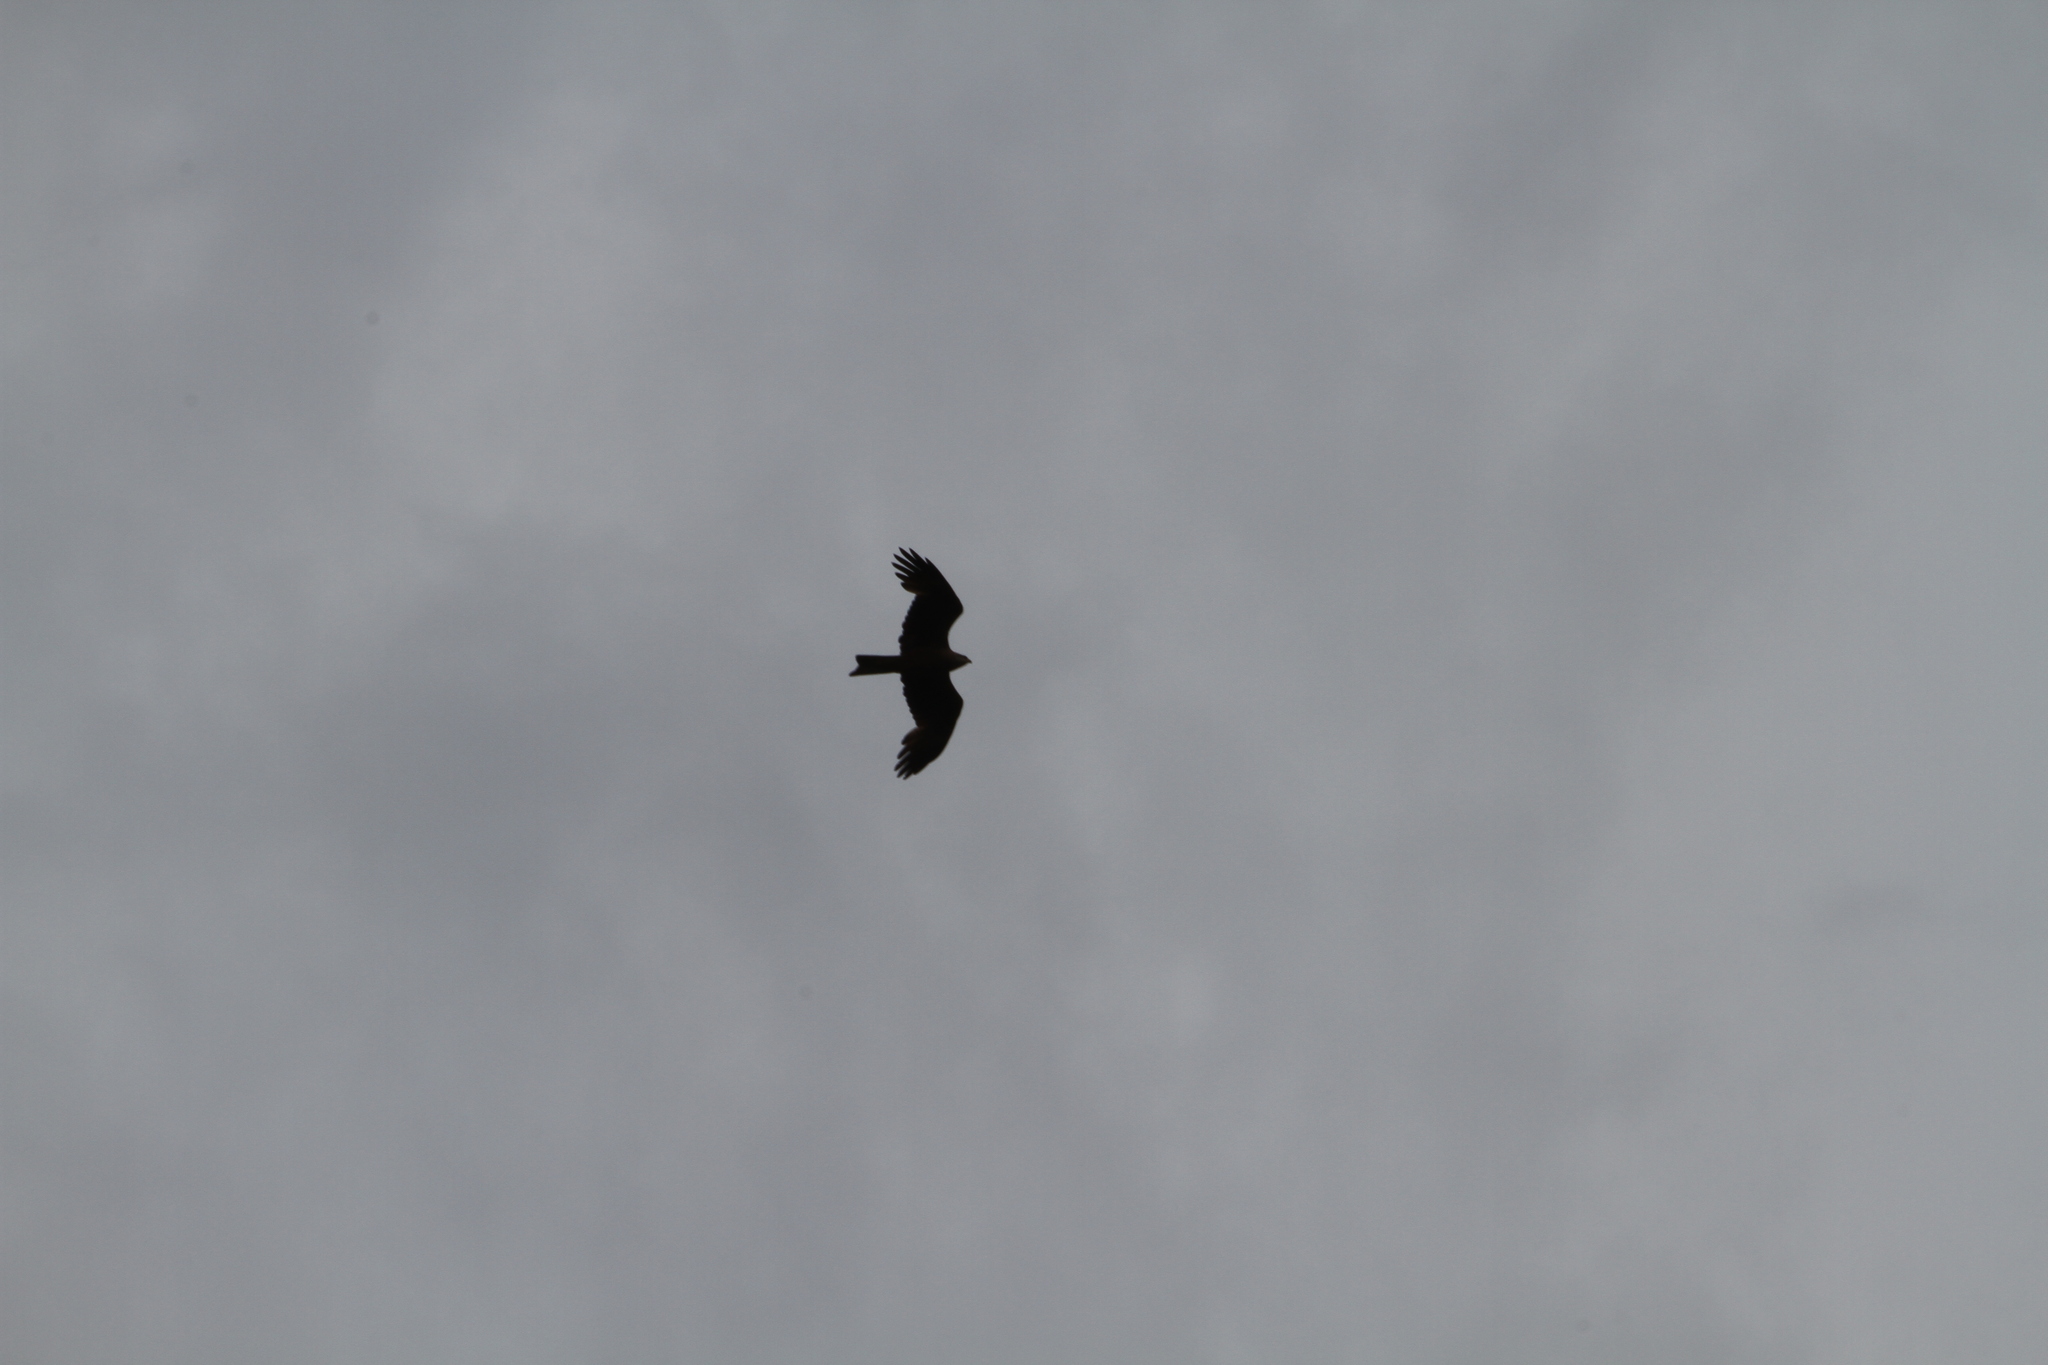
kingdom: Animalia
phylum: Chordata
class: Aves
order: Accipitriformes
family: Accipitridae
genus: Milvus
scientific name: Milvus migrans
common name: Black kite
